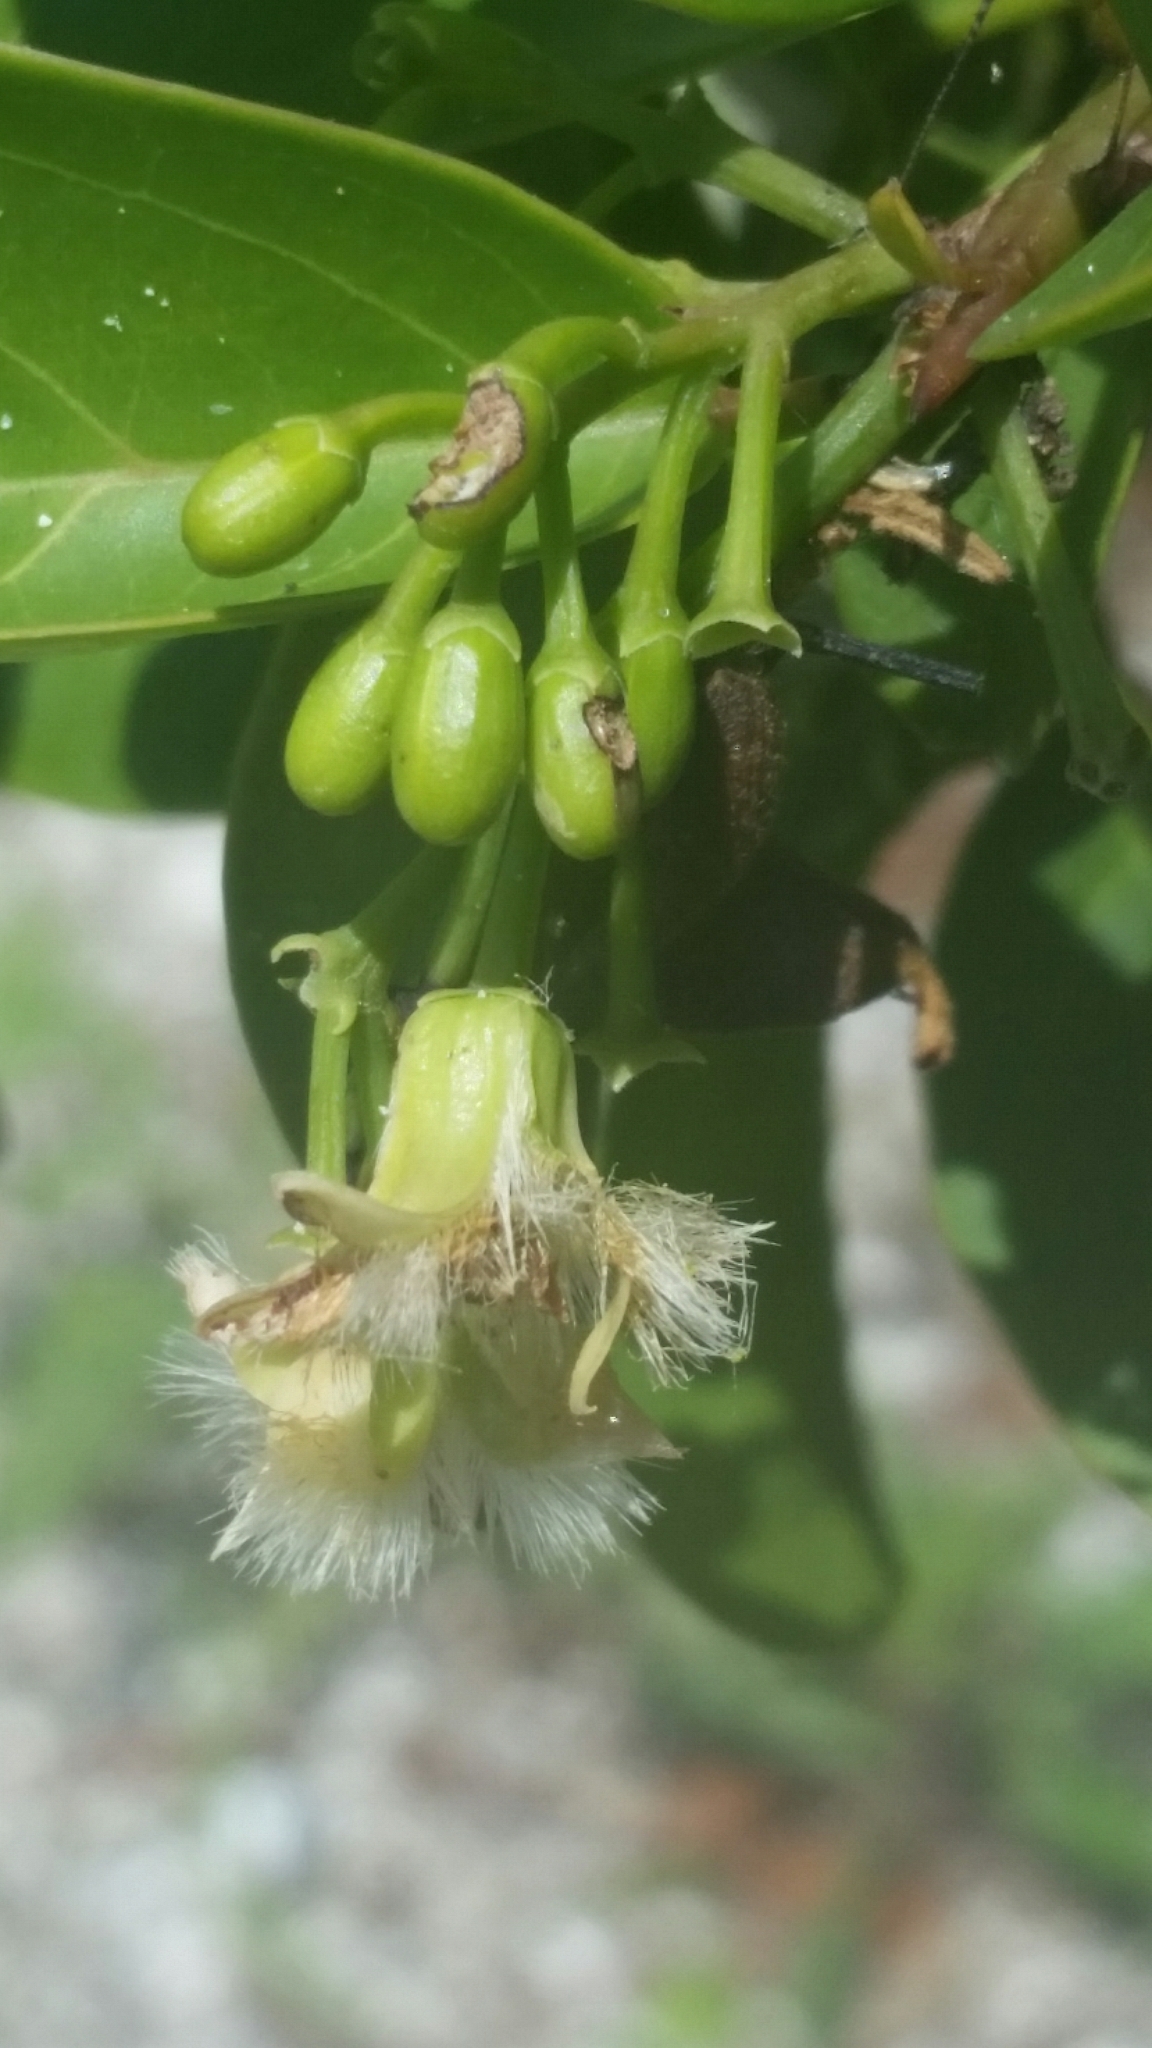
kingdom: Plantae
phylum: Tracheophyta
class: Magnoliopsida
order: Santalales
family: Ximeniaceae
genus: Ximenia
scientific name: Ximenia americana
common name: Tallowwood
